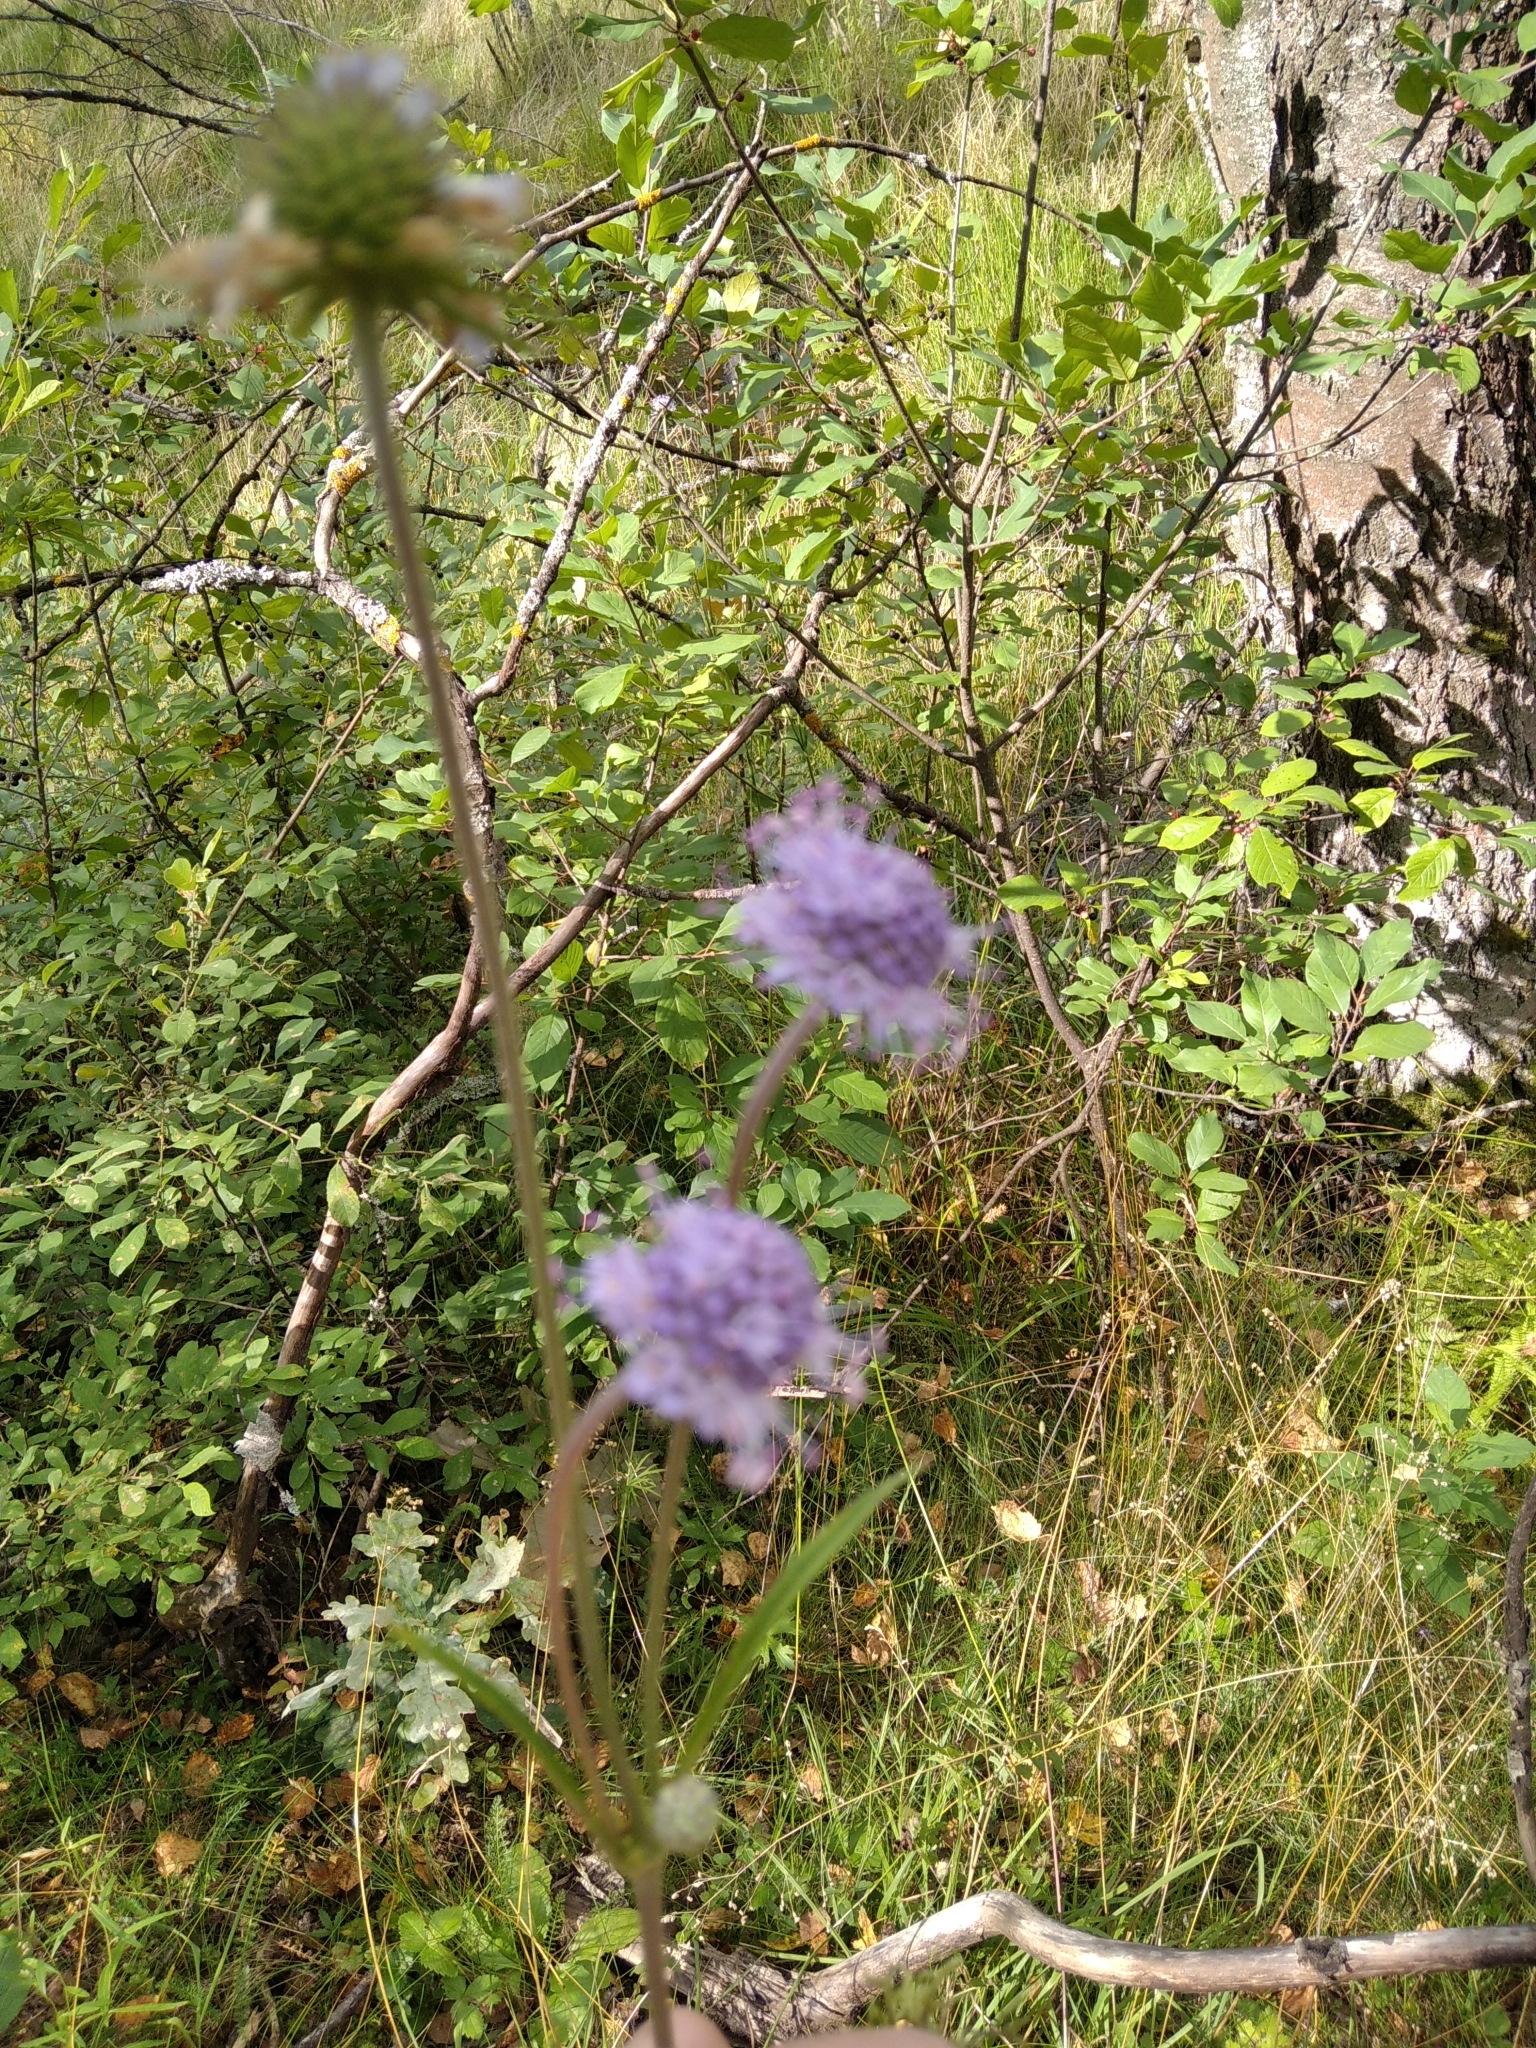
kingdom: Plantae
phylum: Tracheophyta
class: Magnoliopsida
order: Dipsacales
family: Caprifoliaceae
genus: Succisa
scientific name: Succisa pratensis
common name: Devil's-bit
